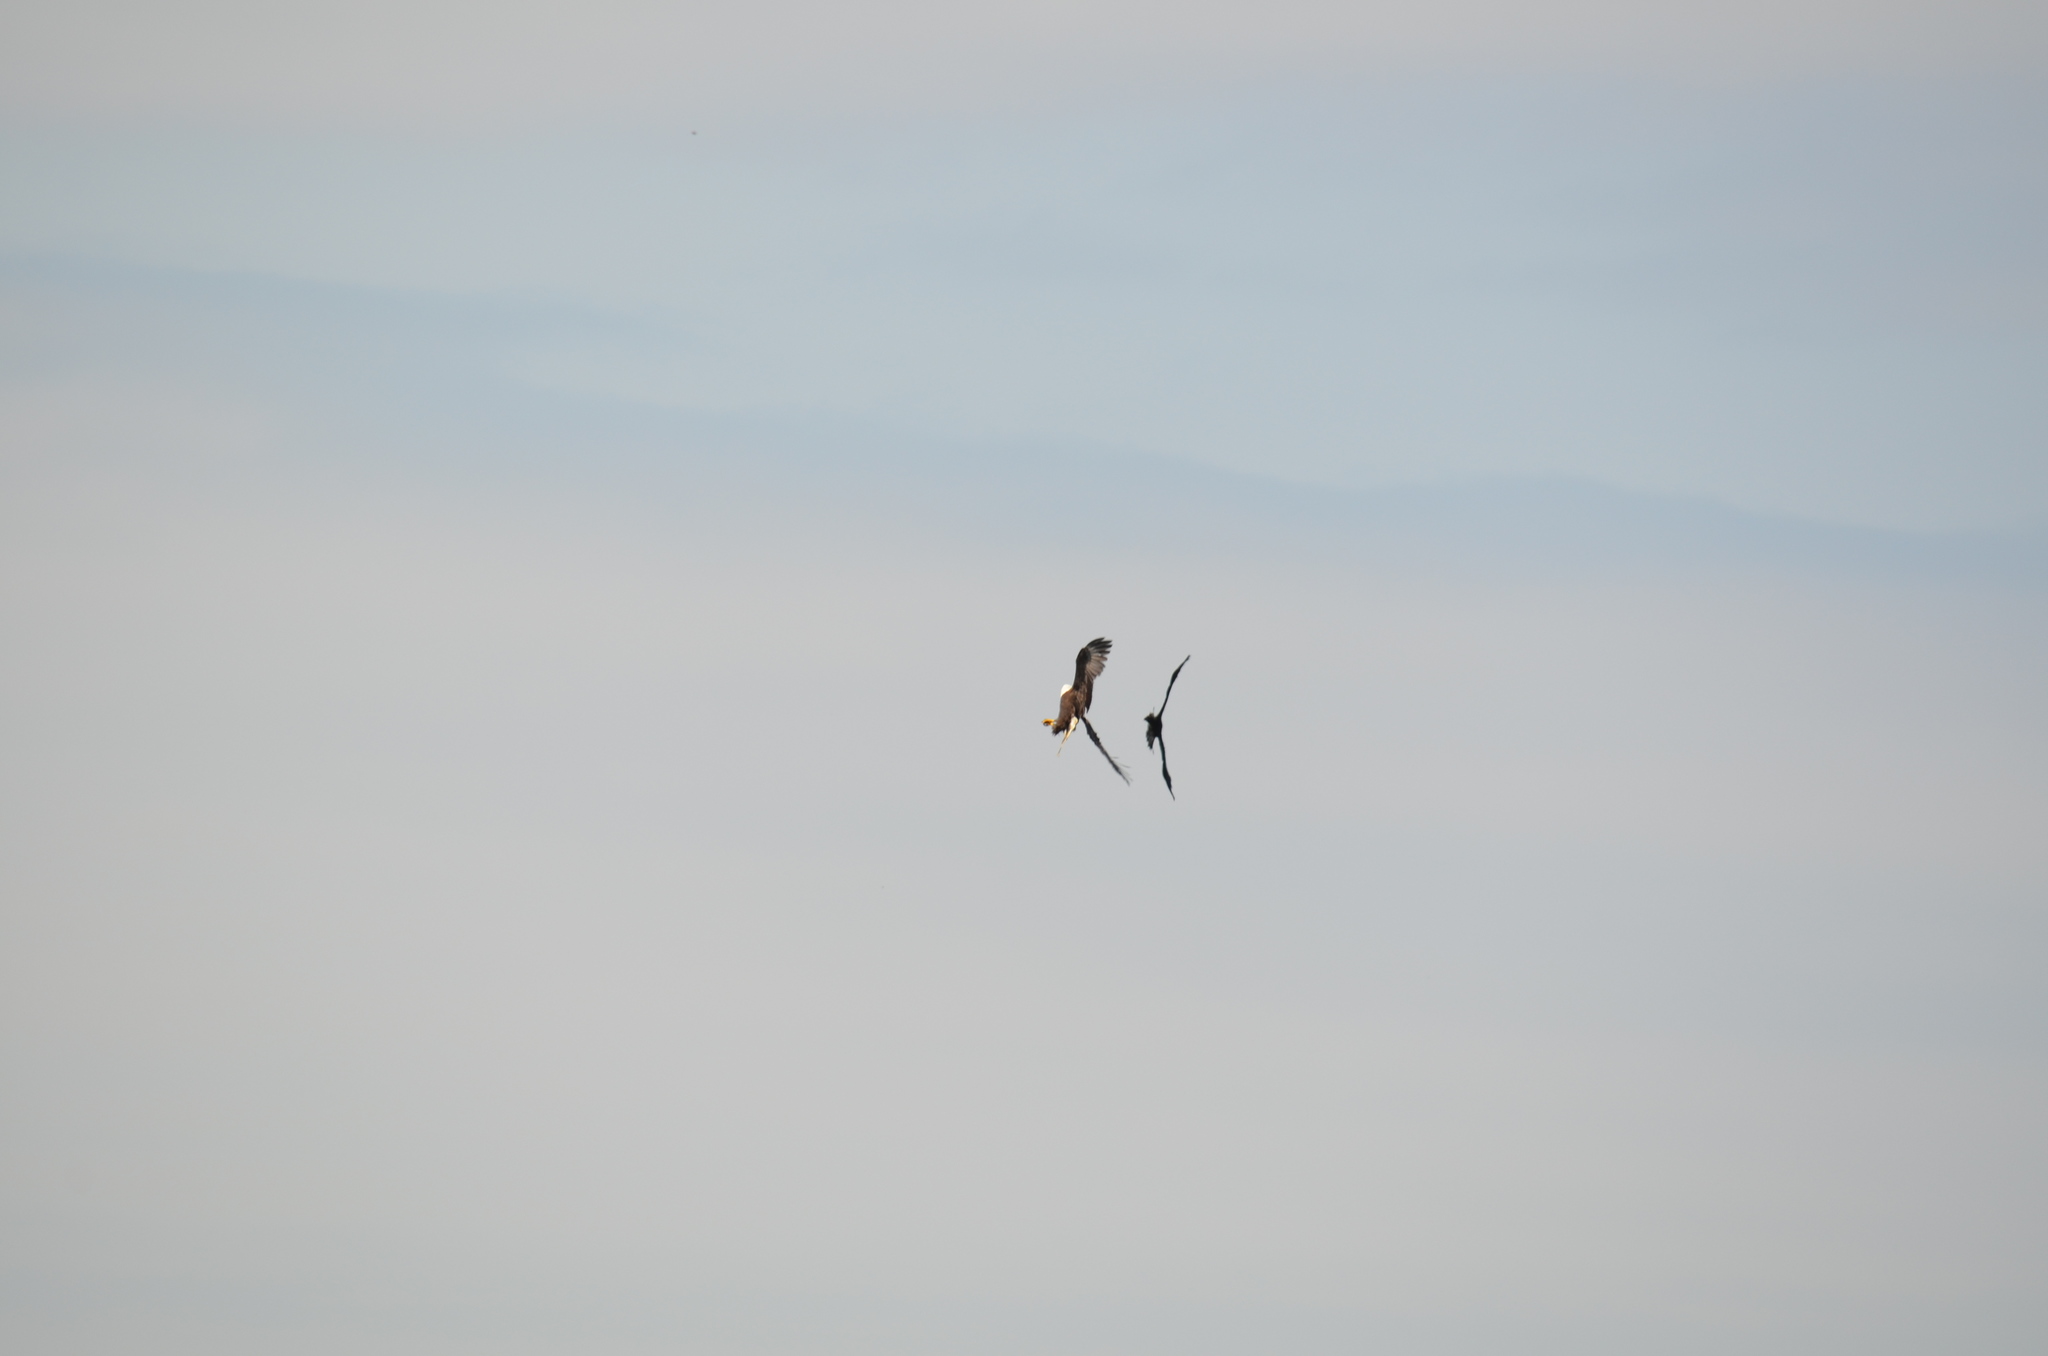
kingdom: Animalia
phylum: Chordata
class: Aves
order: Accipitriformes
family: Accipitridae
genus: Haliaeetus
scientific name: Haliaeetus leucocephalus
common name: Bald eagle
